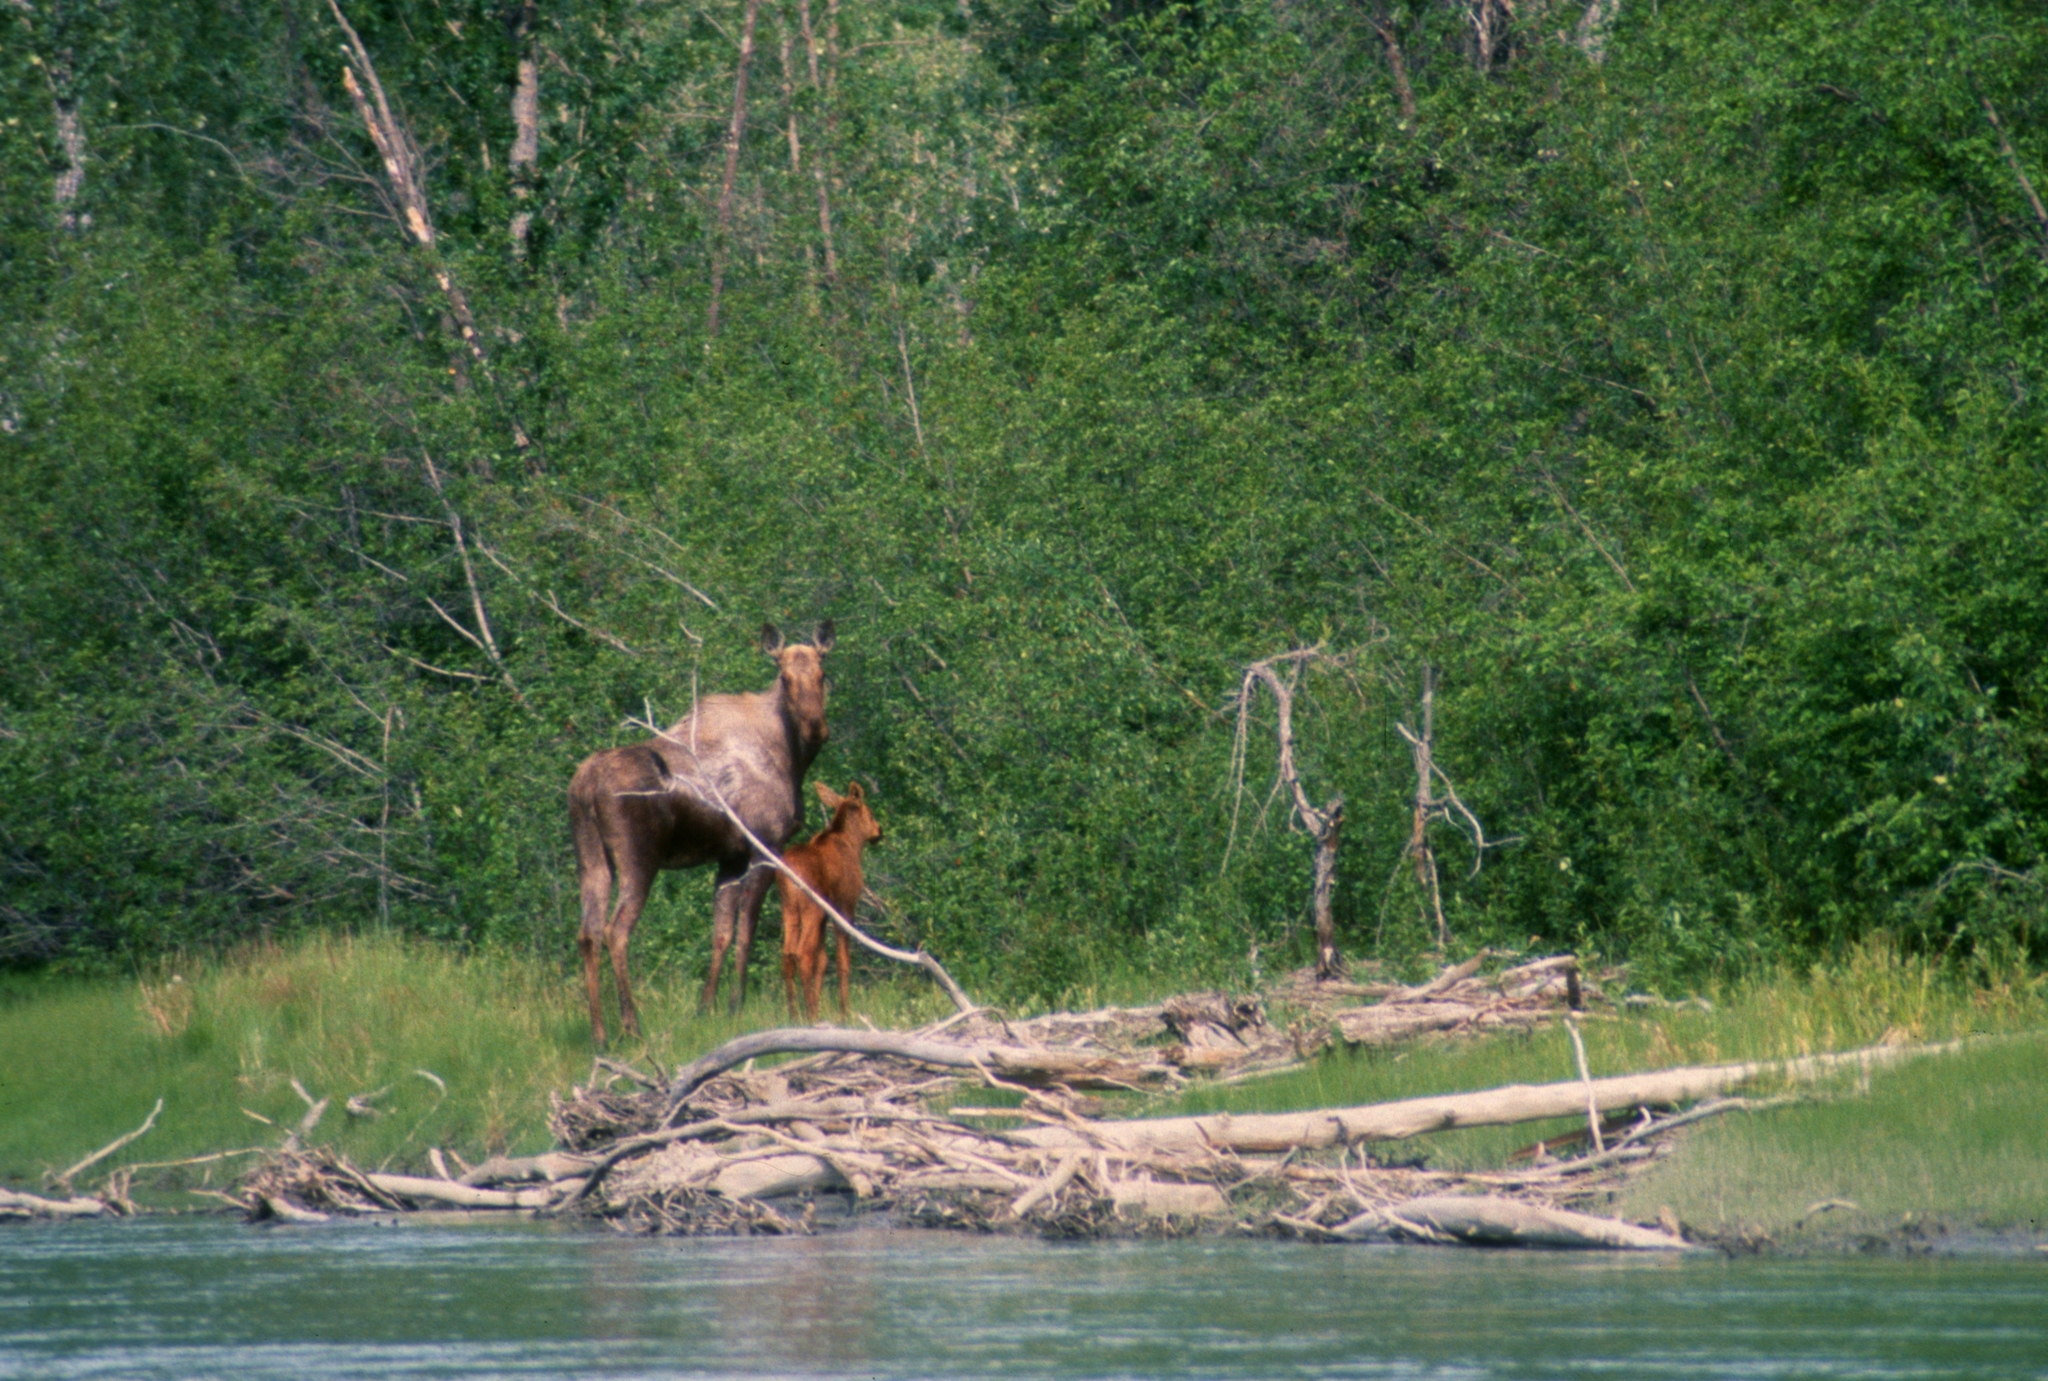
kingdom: Animalia
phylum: Chordata
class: Mammalia
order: Artiodactyla
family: Cervidae
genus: Alces
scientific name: Alces alces
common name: Moose
